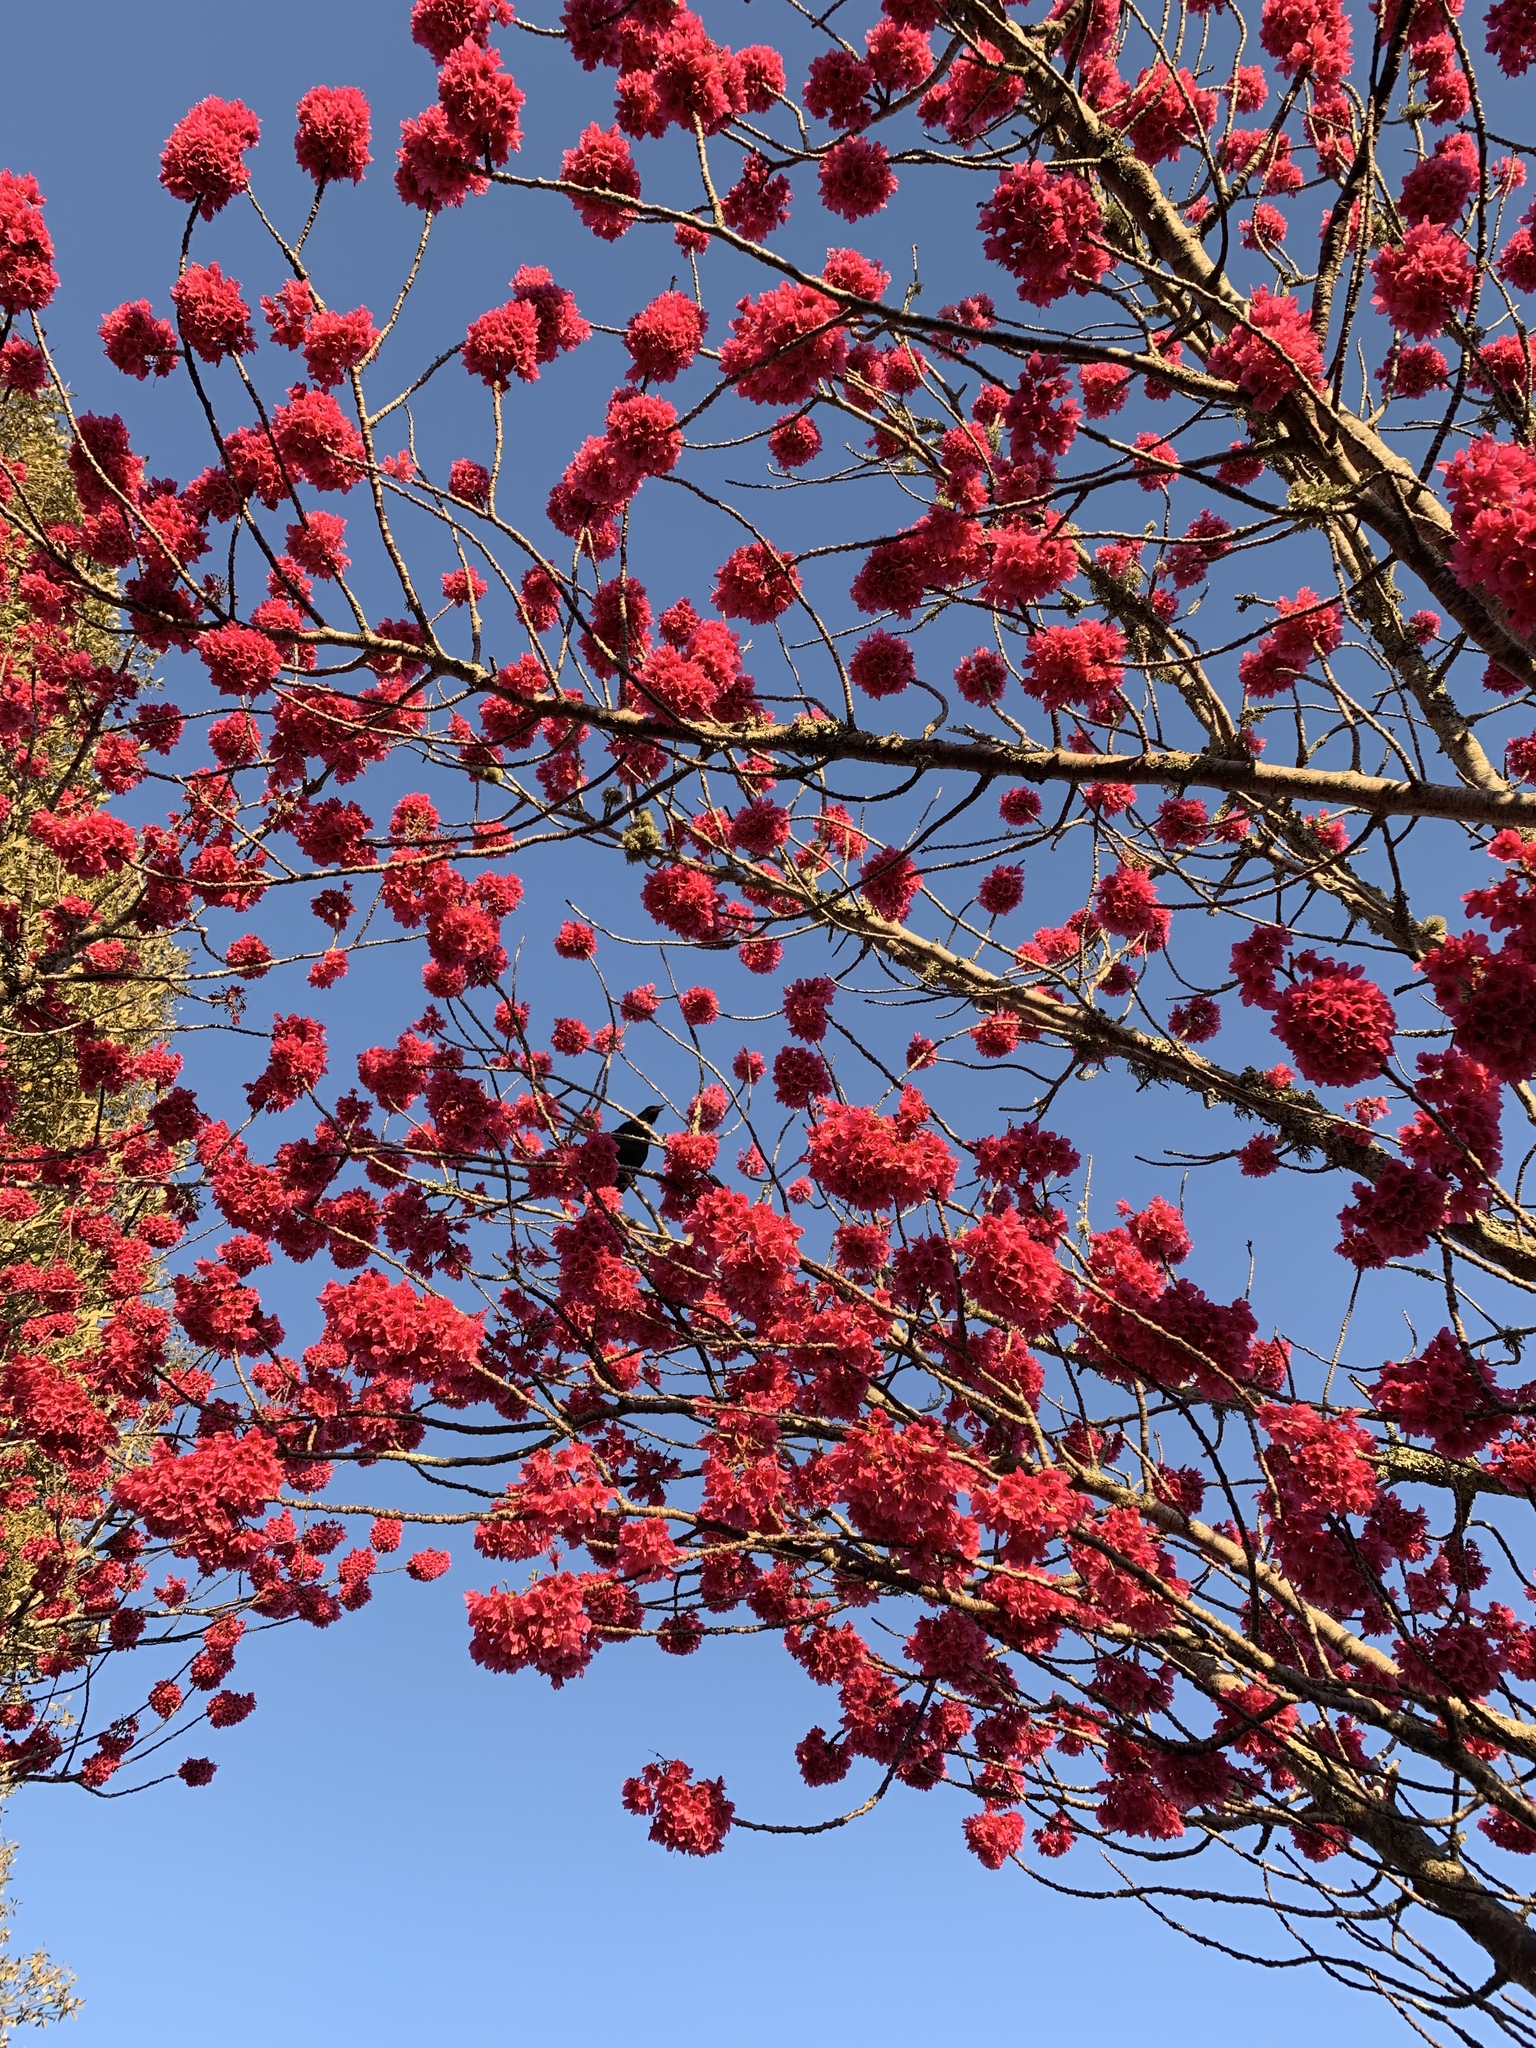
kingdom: Animalia
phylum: Chordata
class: Aves
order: Passeriformes
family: Meliphagidae
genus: Prosthemadera
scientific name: Prosthemadera novaeseelandiae
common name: Tui
